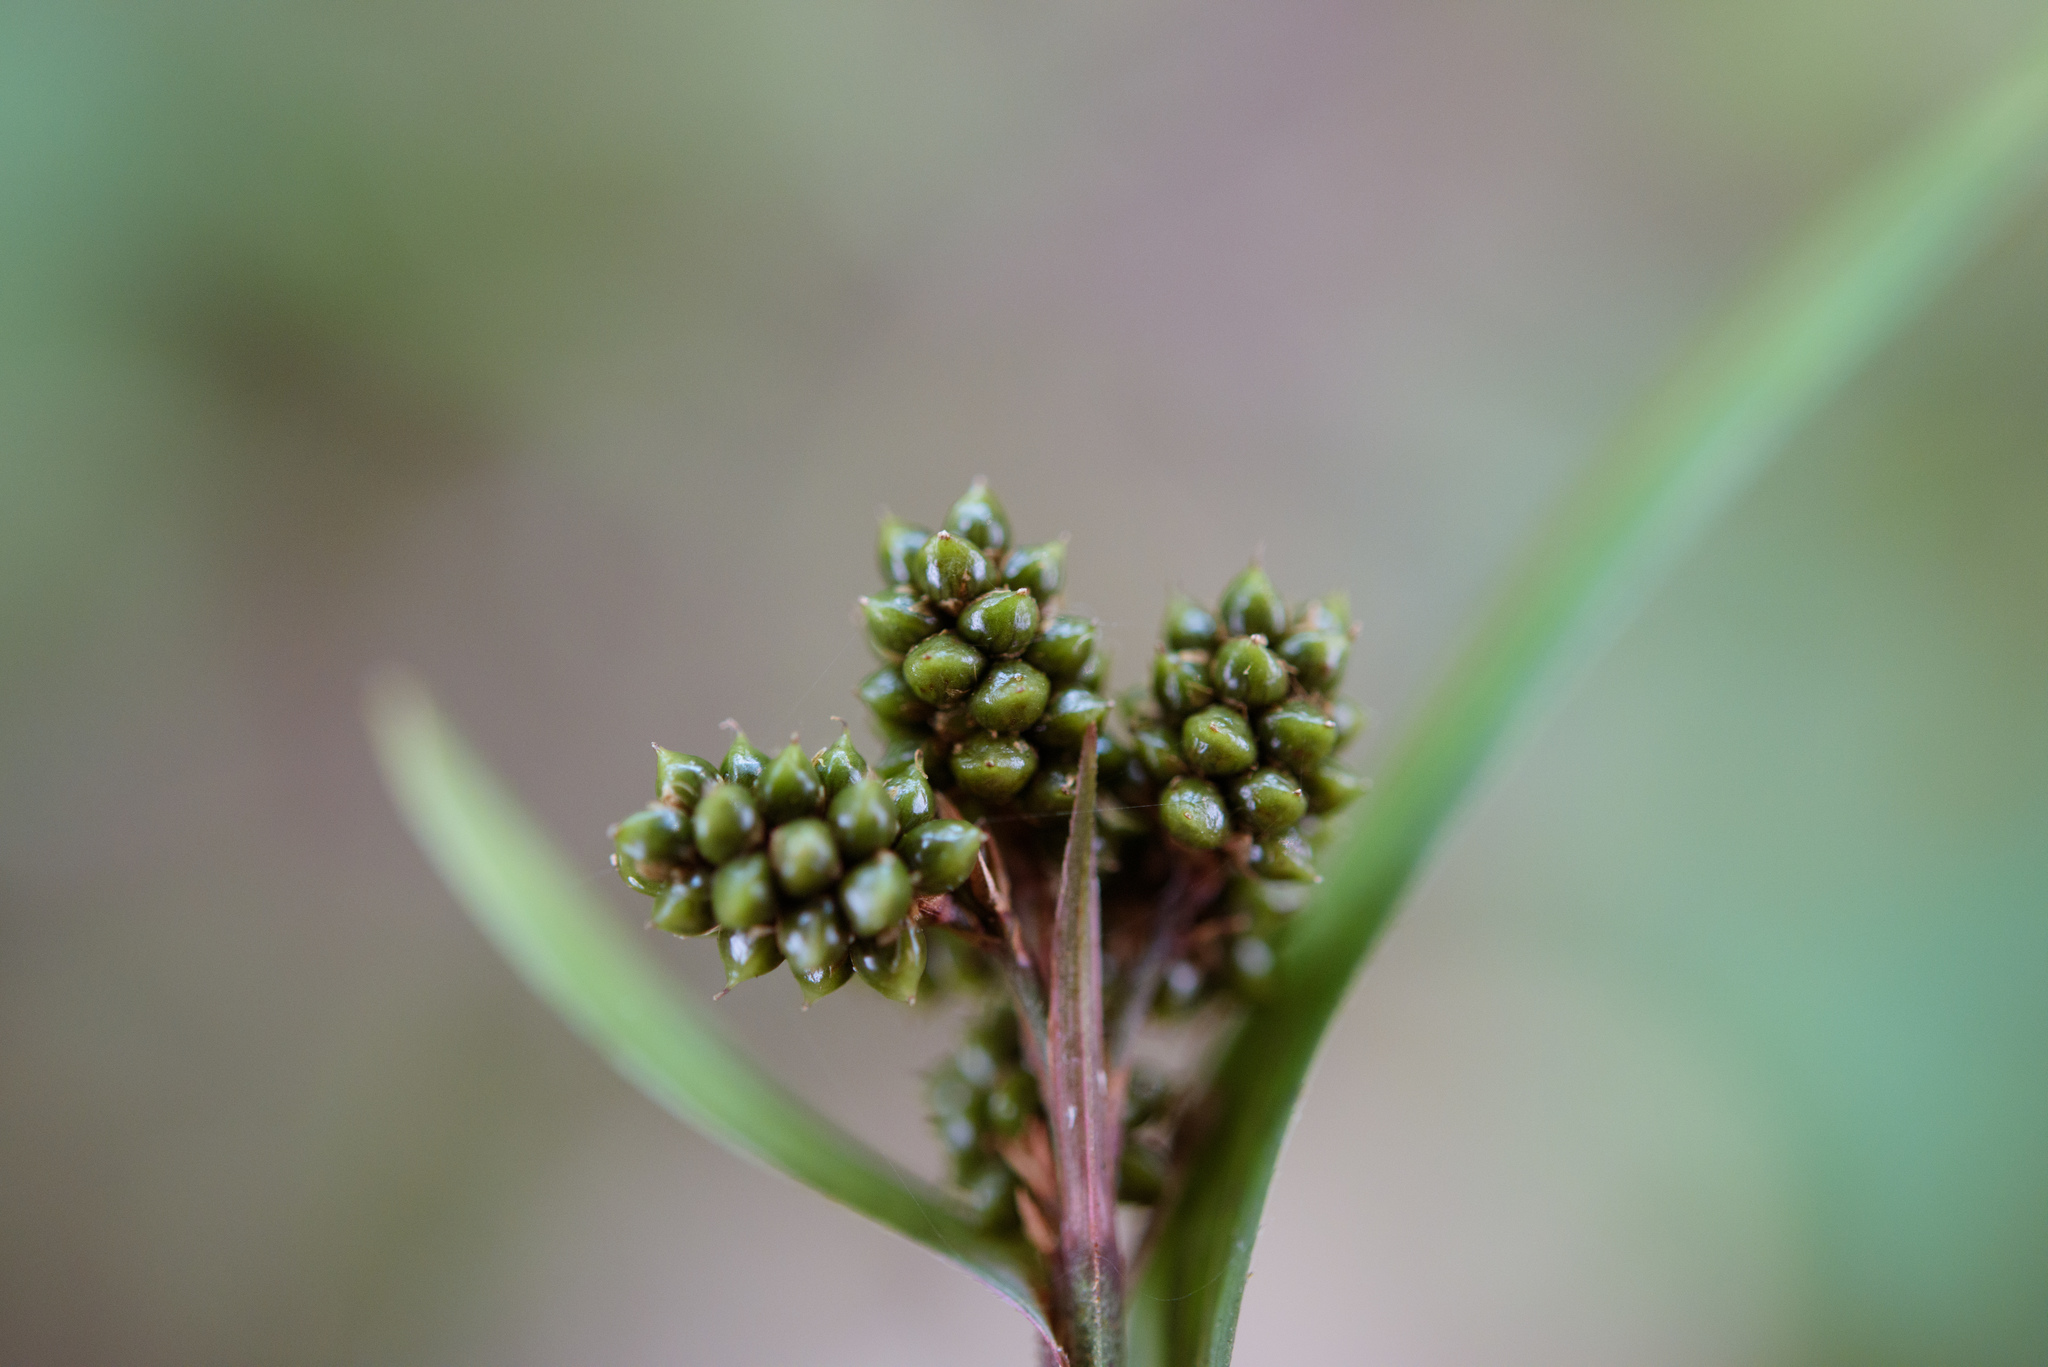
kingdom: Plantae
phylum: Tracheophyta
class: Liliopsida
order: Poales
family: Cyperaceae
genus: Hypolytrum
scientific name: Hypolytrum nemorum
